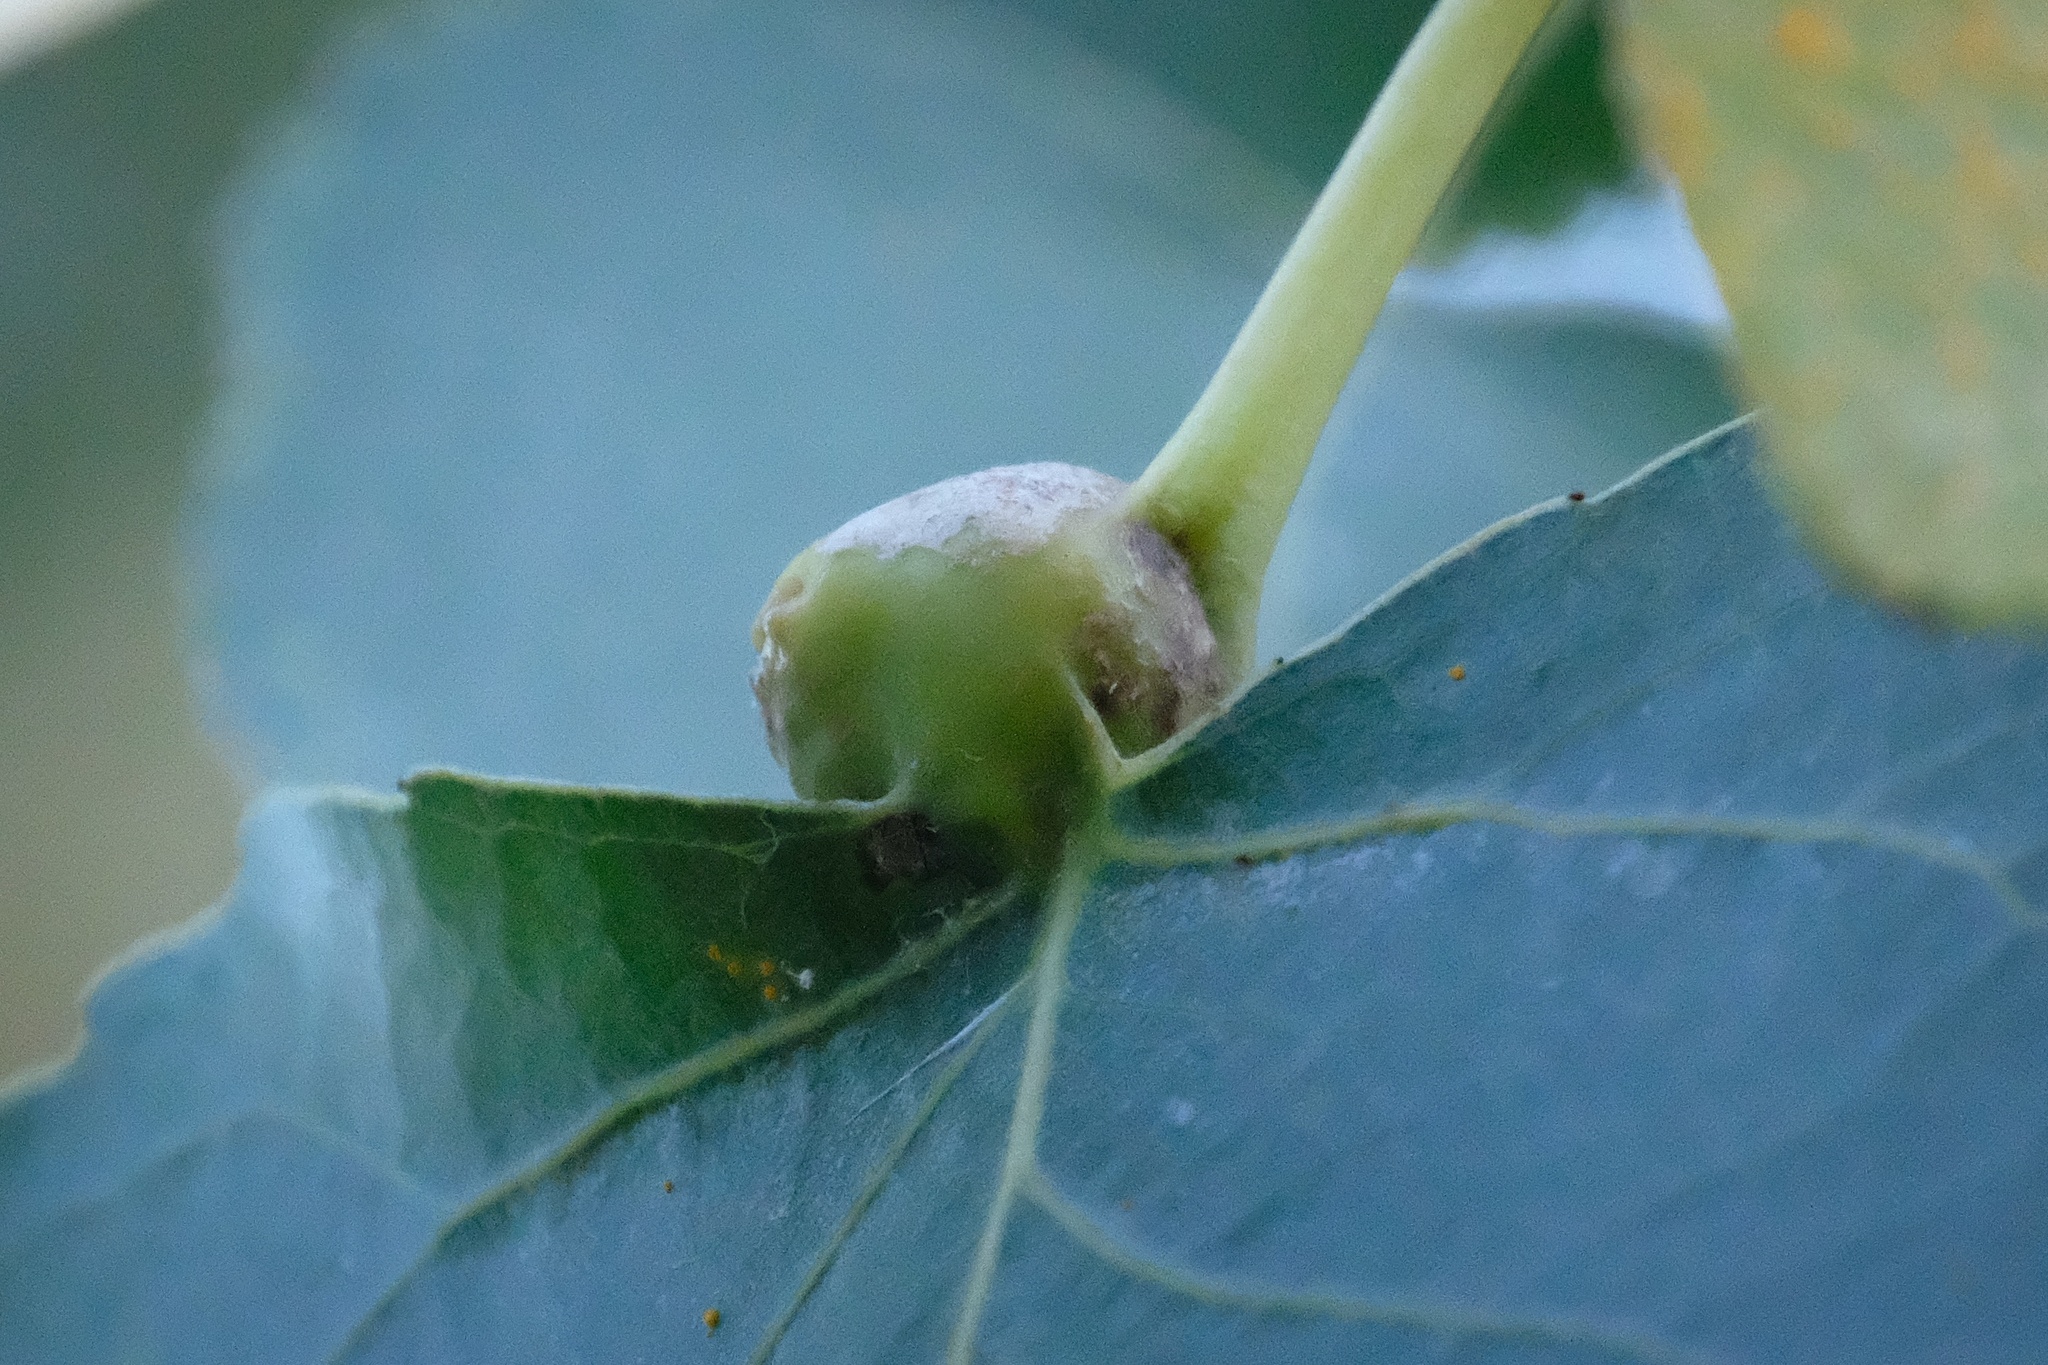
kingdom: Animalia
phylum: Arthropoda
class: Insecta
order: Hemiptera
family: Aphididae
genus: Pemphigus
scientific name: Pemphigus obesinymphae
